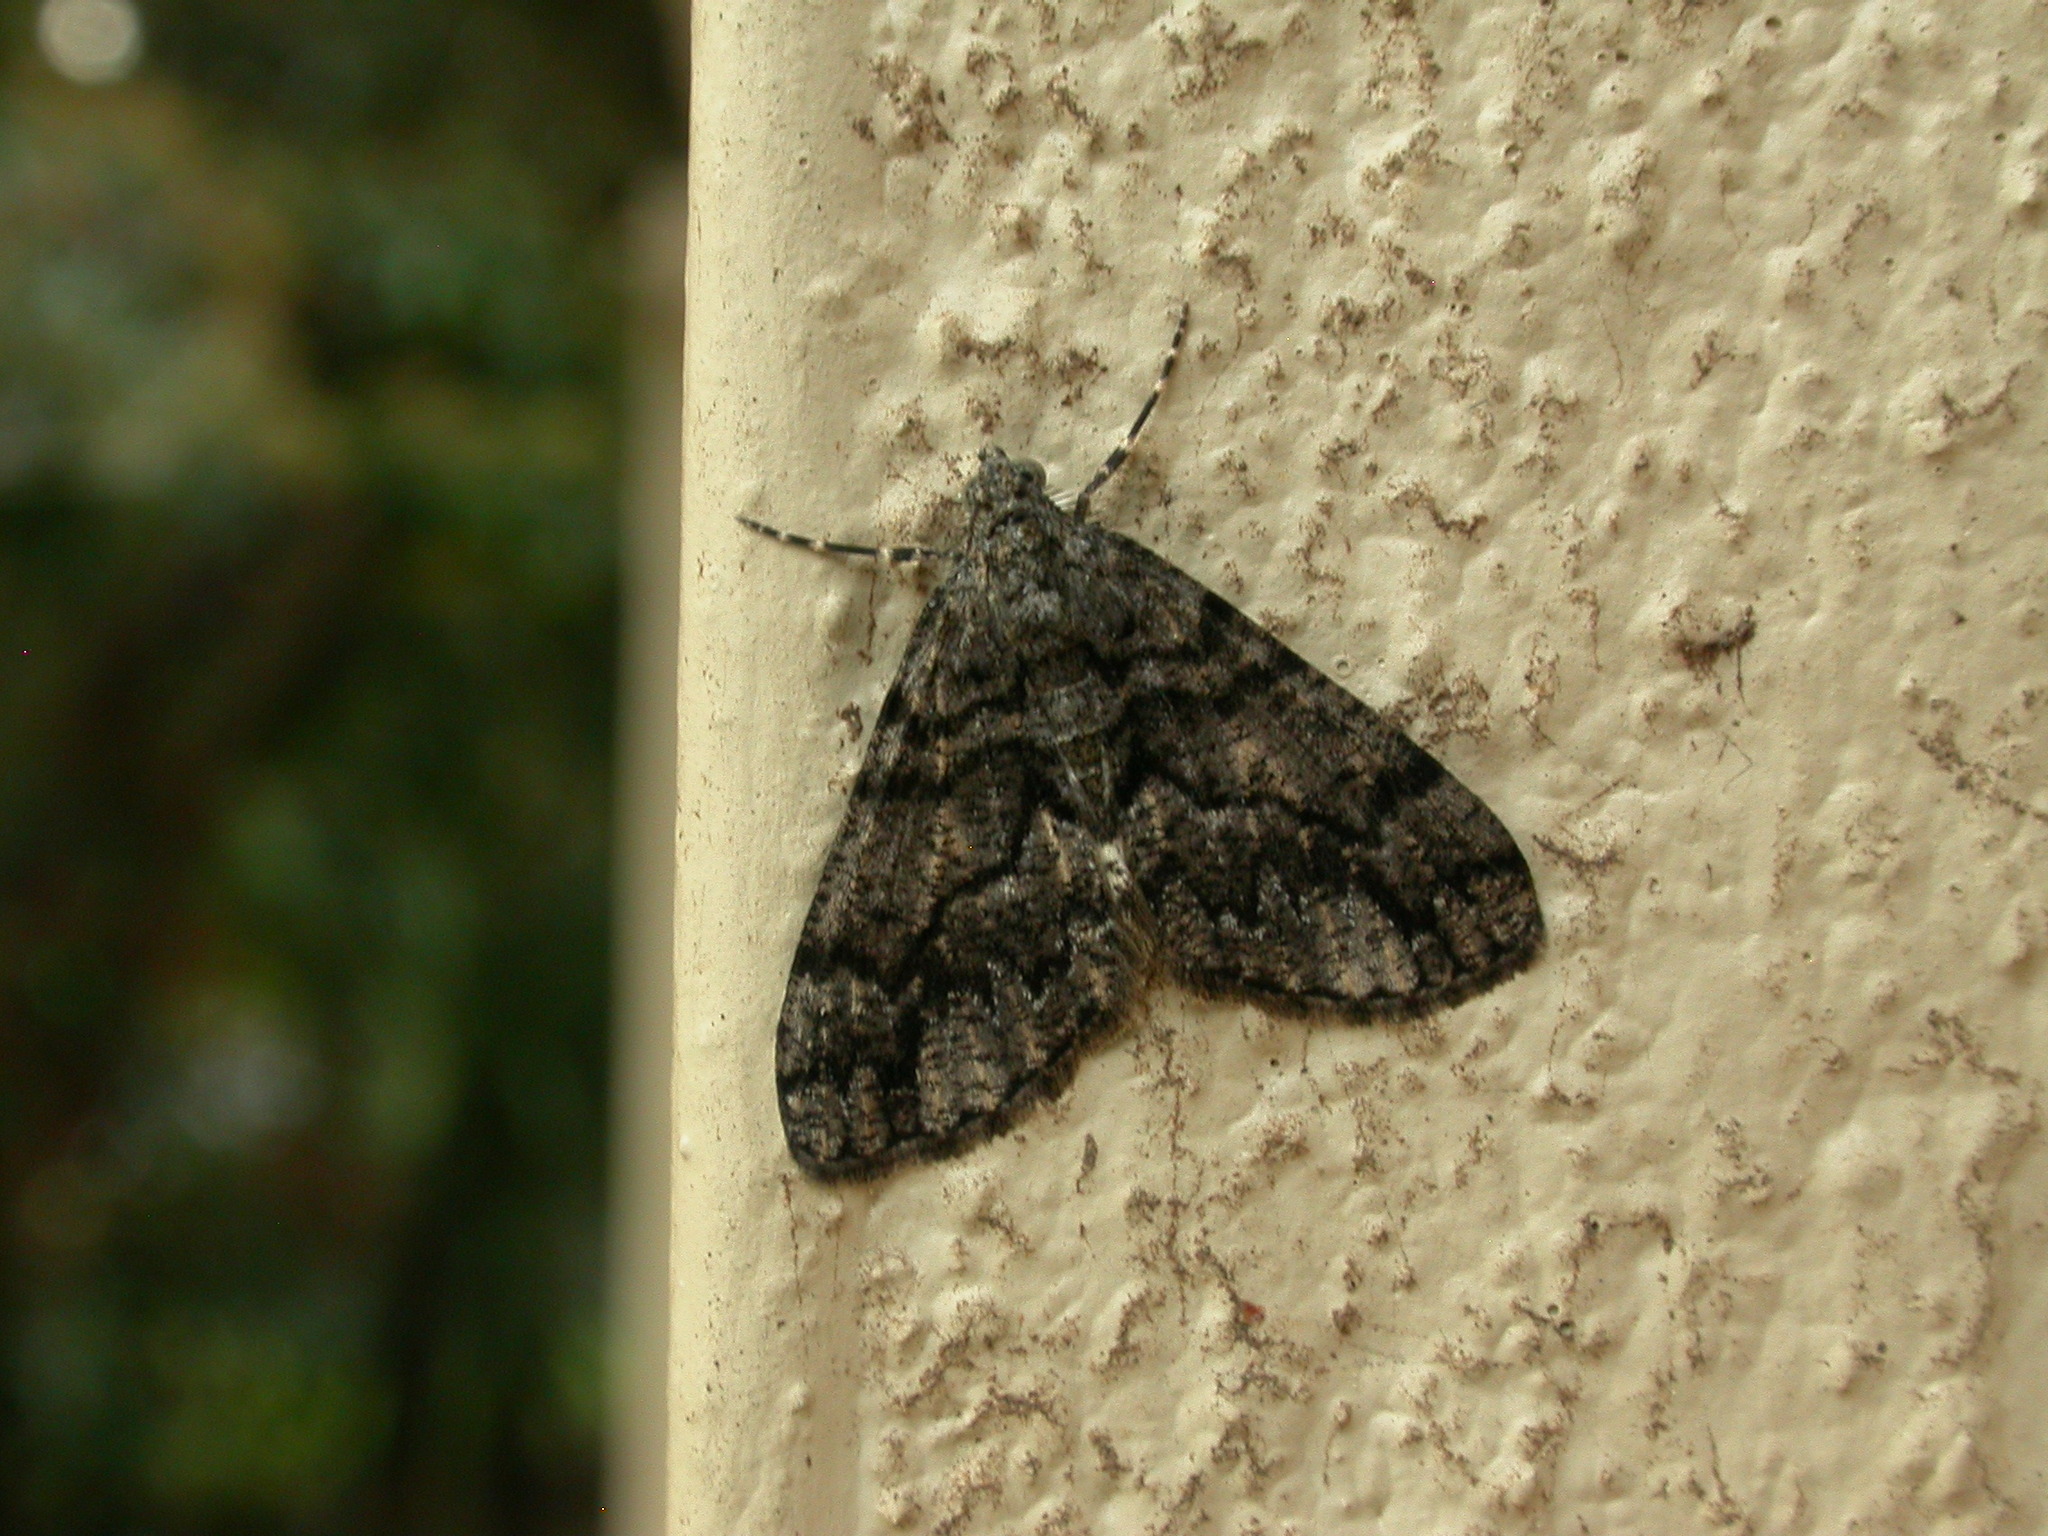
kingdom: Animalia
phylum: Arthropoda
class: Insecta
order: Lepidoptera
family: Geometridae
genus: Lipogya
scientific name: Lipogya exprimataria
